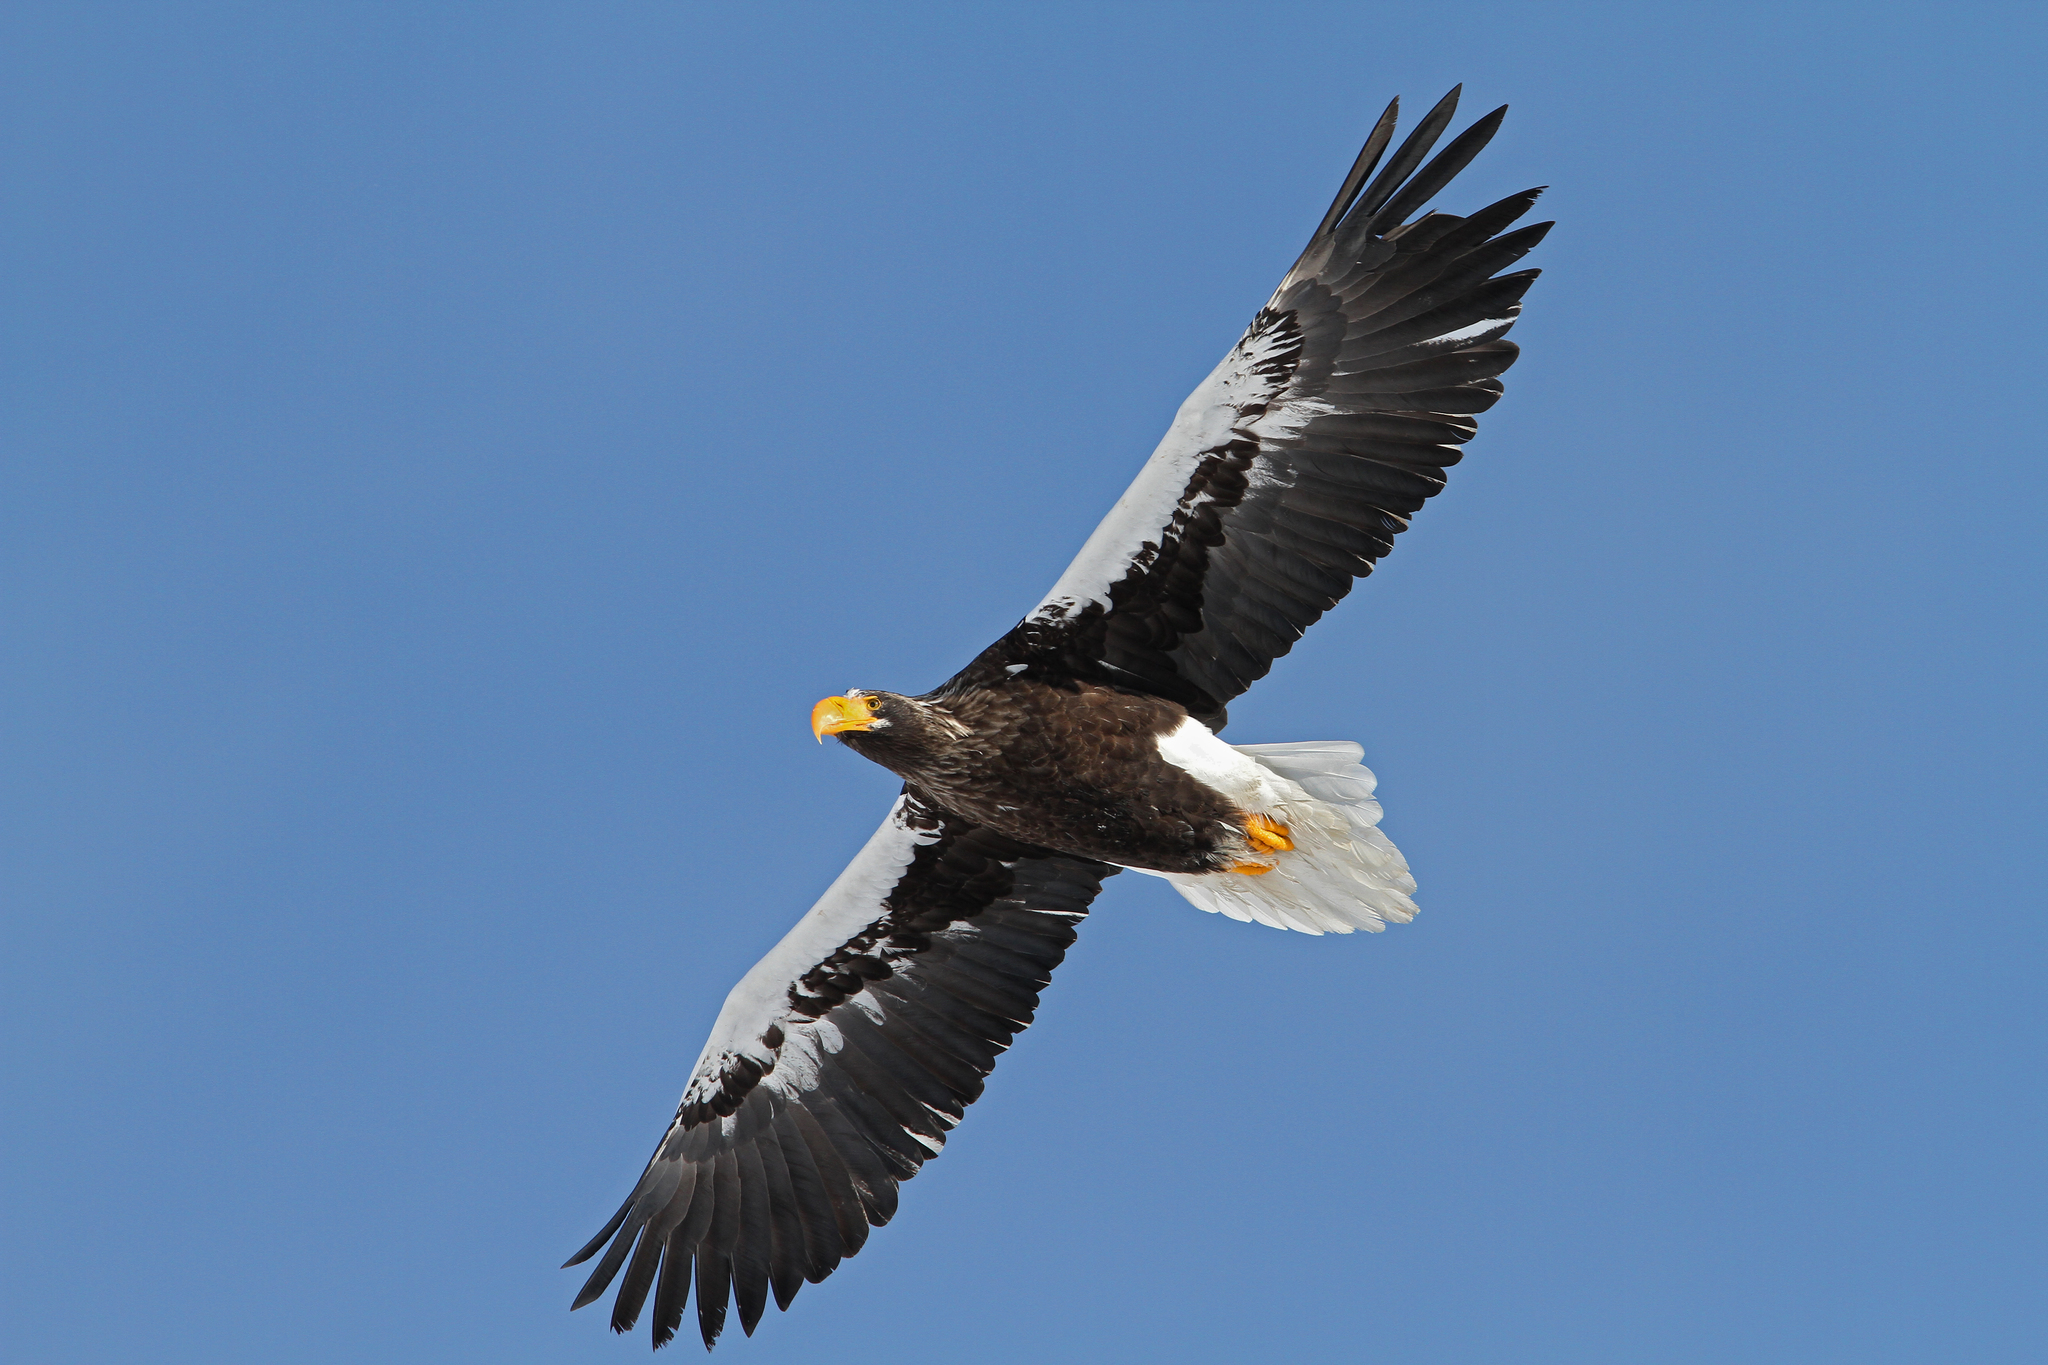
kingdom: Animalia
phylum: Chordata
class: Aves
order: Accipitriformes
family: Accipitridae
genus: Haliaeetus
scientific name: Haliaeetus pelagicus
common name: Steller's sea eagle
